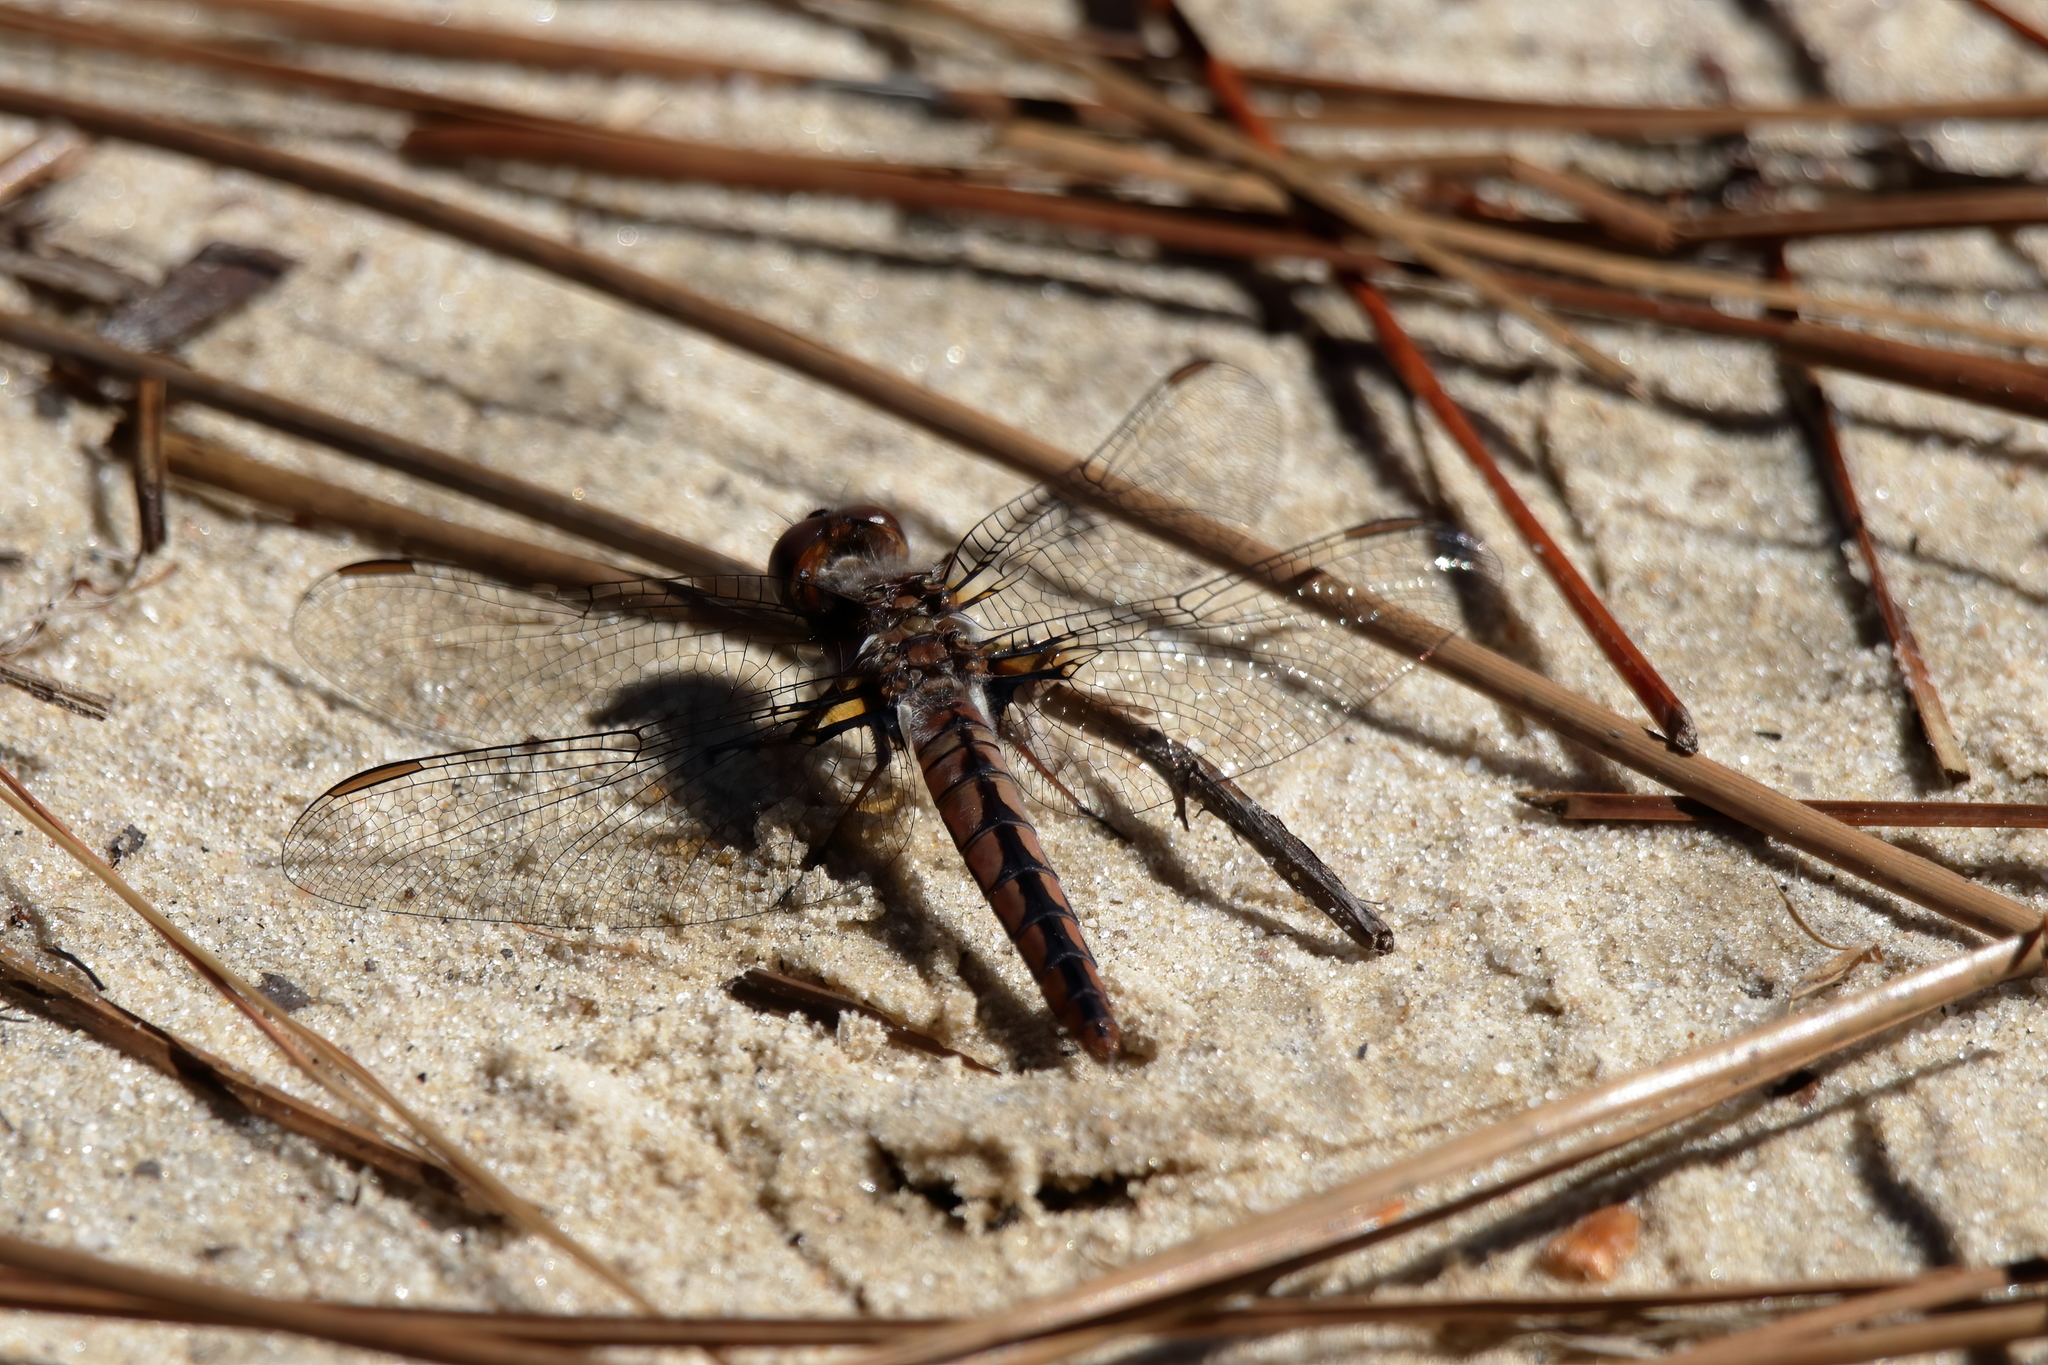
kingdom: Animalia
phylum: Arthropoda
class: Insecta
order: Odonata
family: Libellulidae
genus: Ladona
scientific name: Ladona deplanata
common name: Blue corporal
